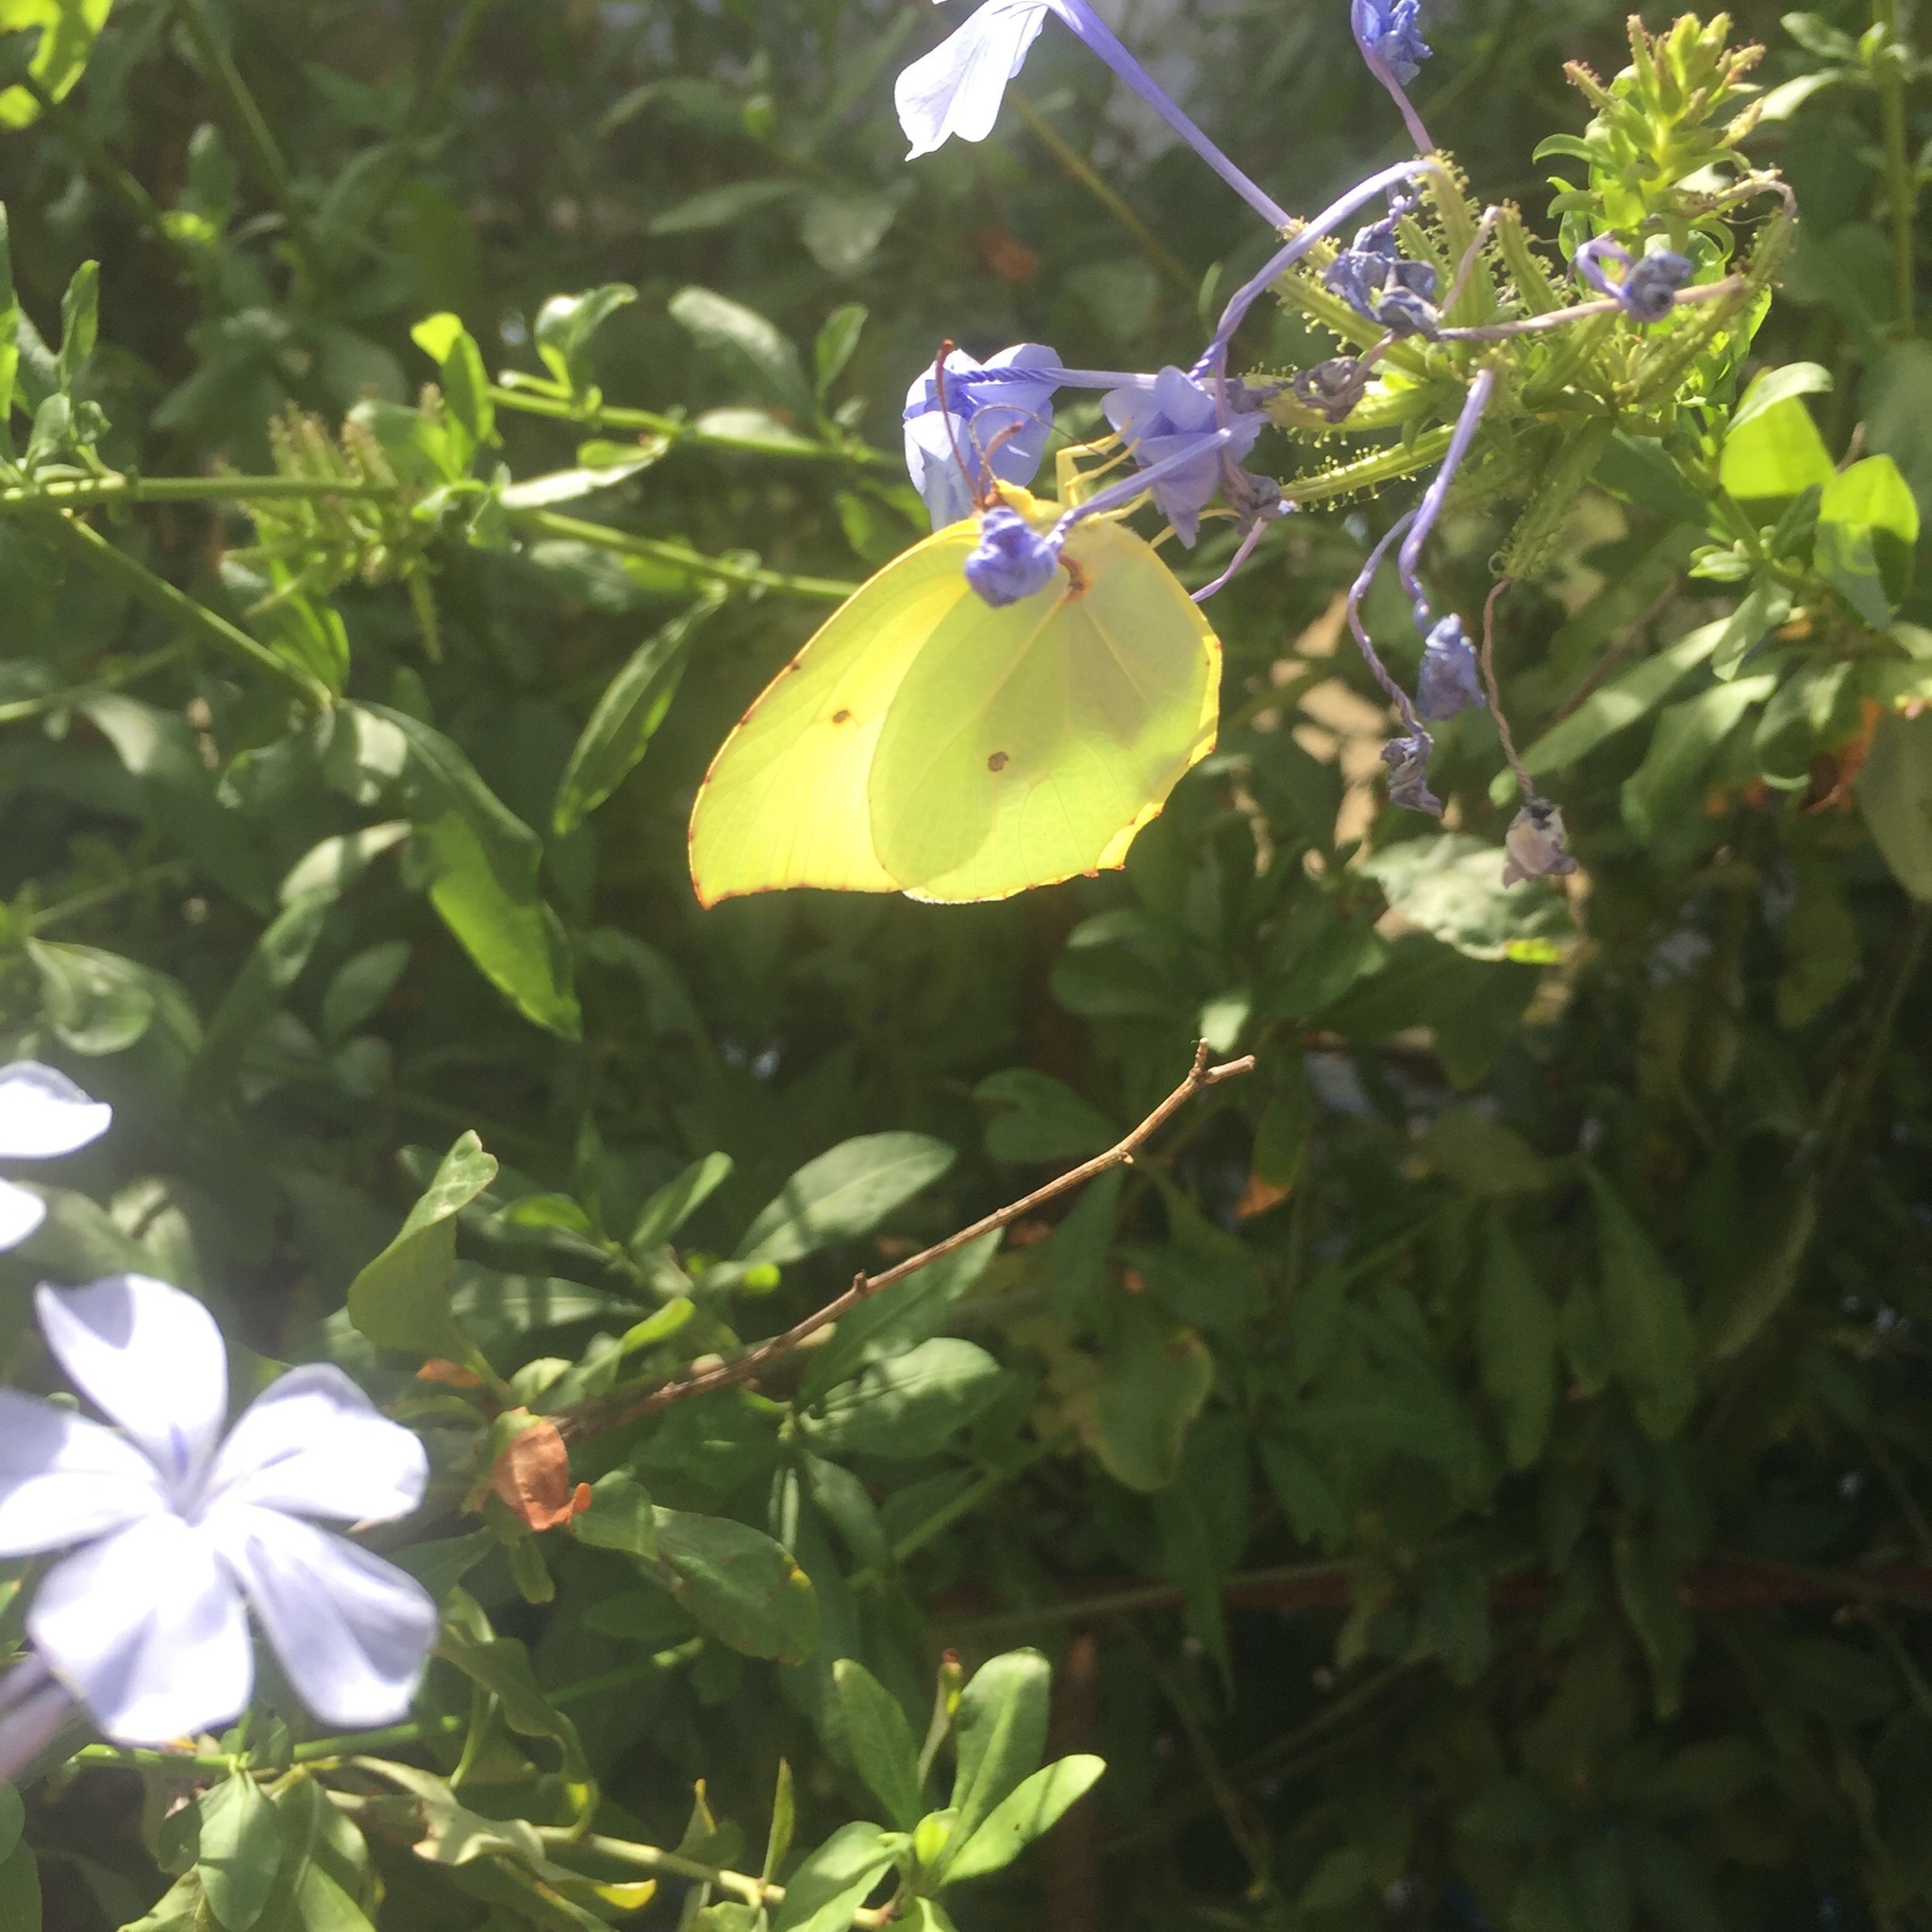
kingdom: Animalia
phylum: Arthropoda
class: Insecta
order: Lepidoptera
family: Pieridae
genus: Gonepteryx
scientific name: Gonepteryx rhamni
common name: Brimstone
